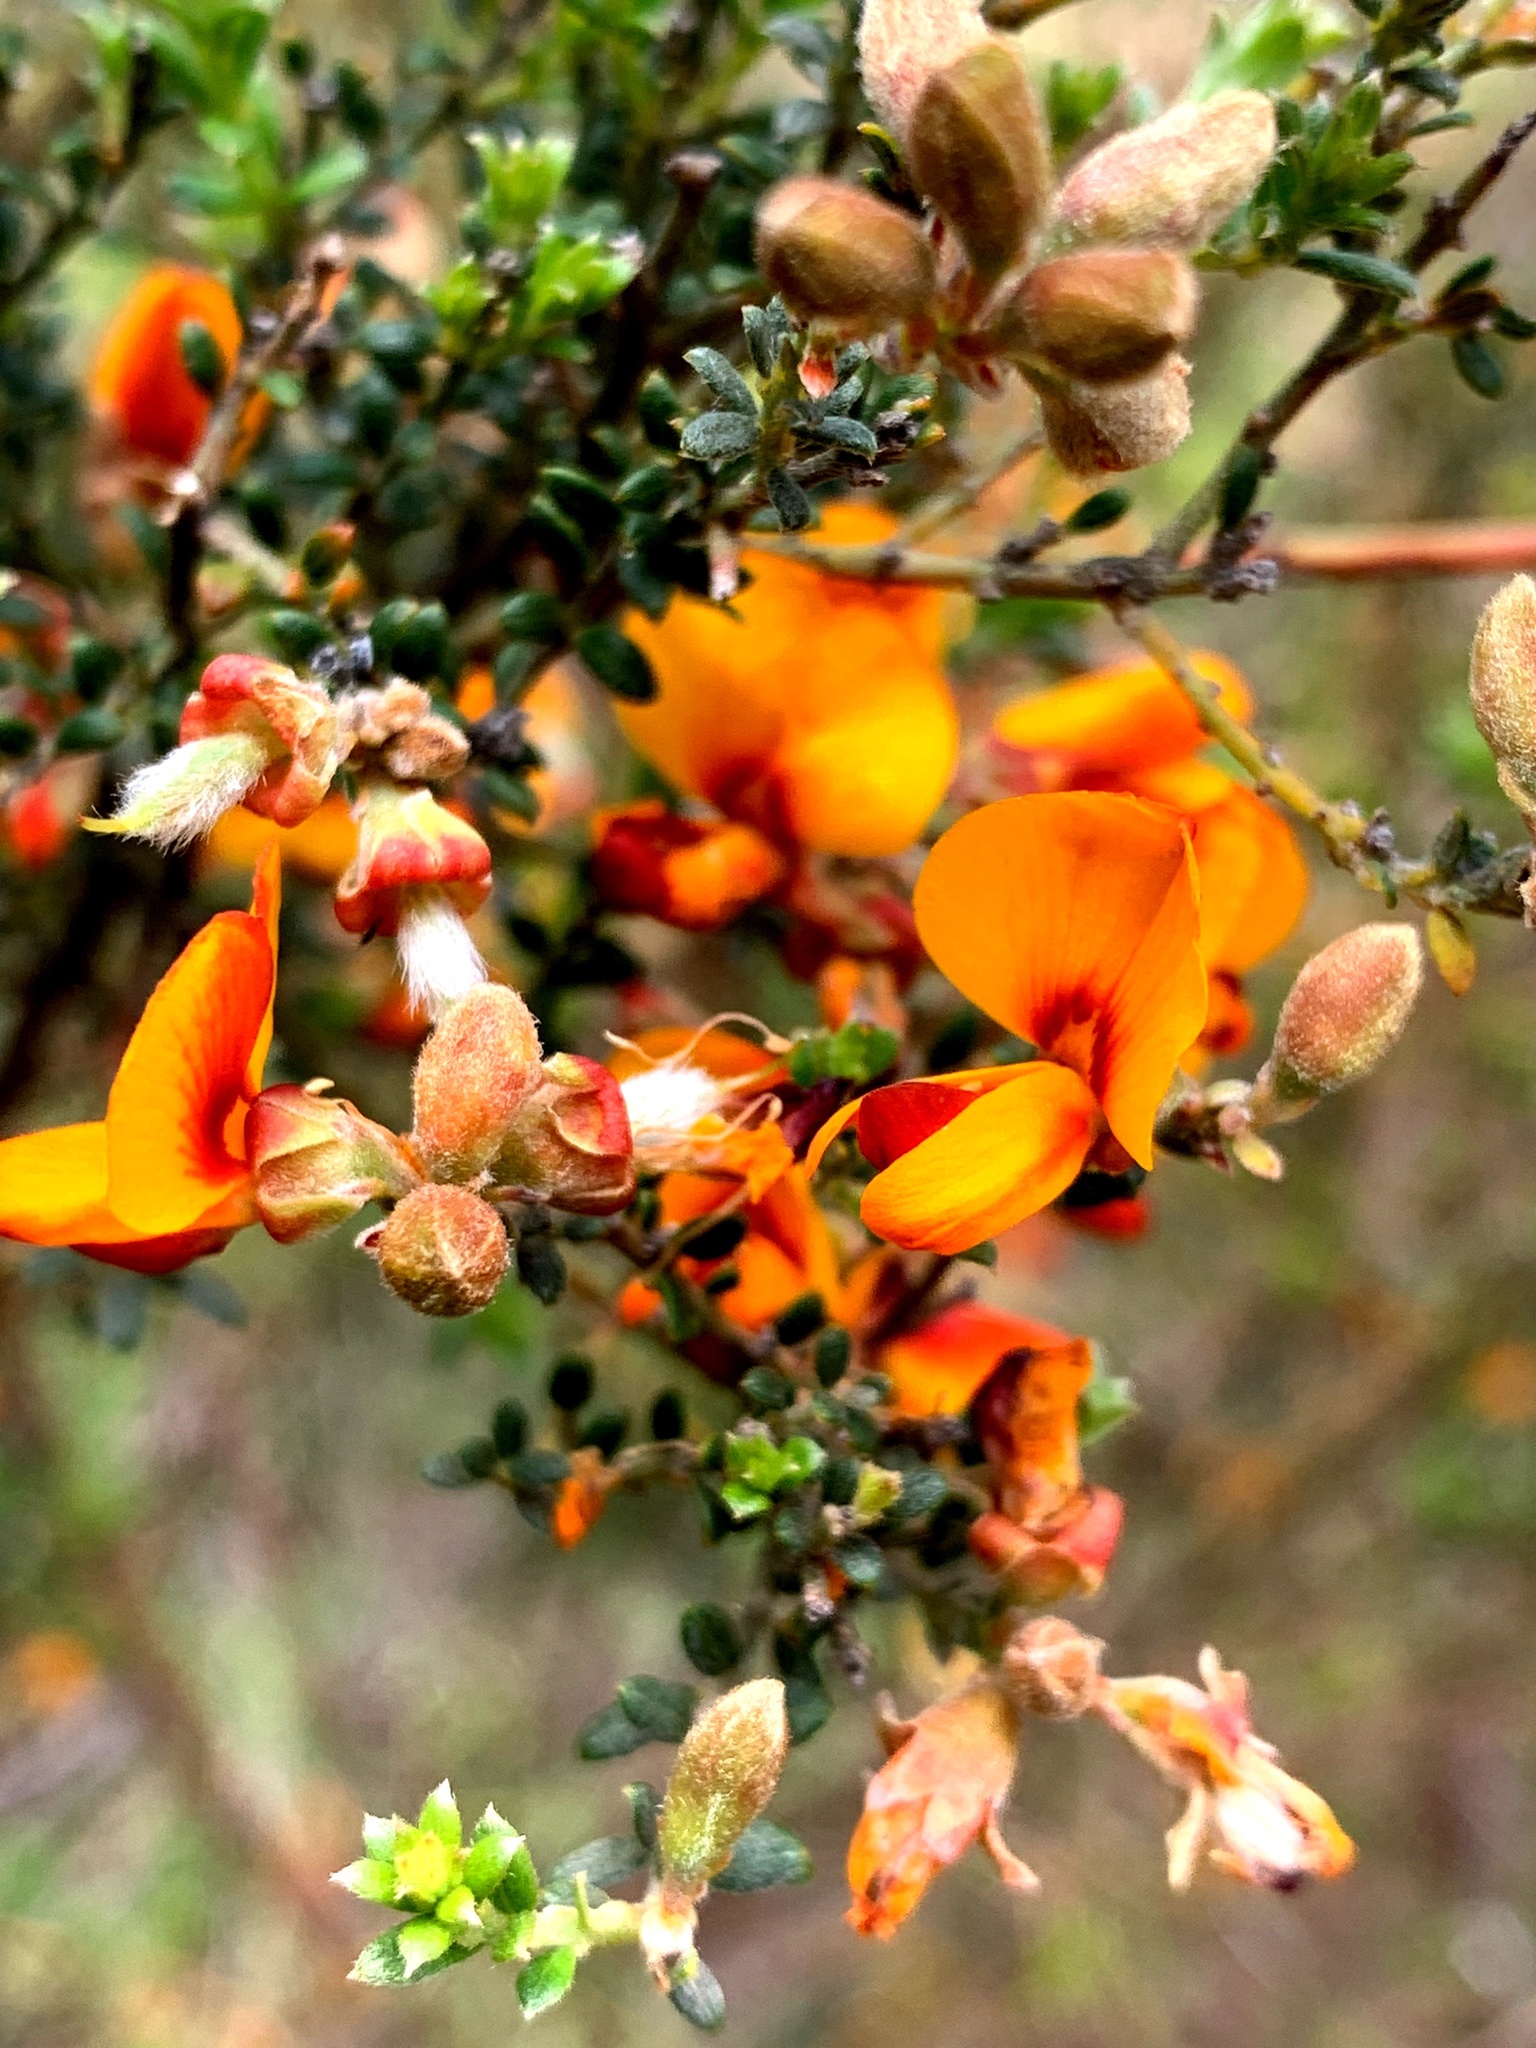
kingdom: Plantae
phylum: Tracheophyta
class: Magnoliopsida
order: Fabales
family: Fabaceae
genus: Oxylobium
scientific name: Oxylobium oxylobioides
